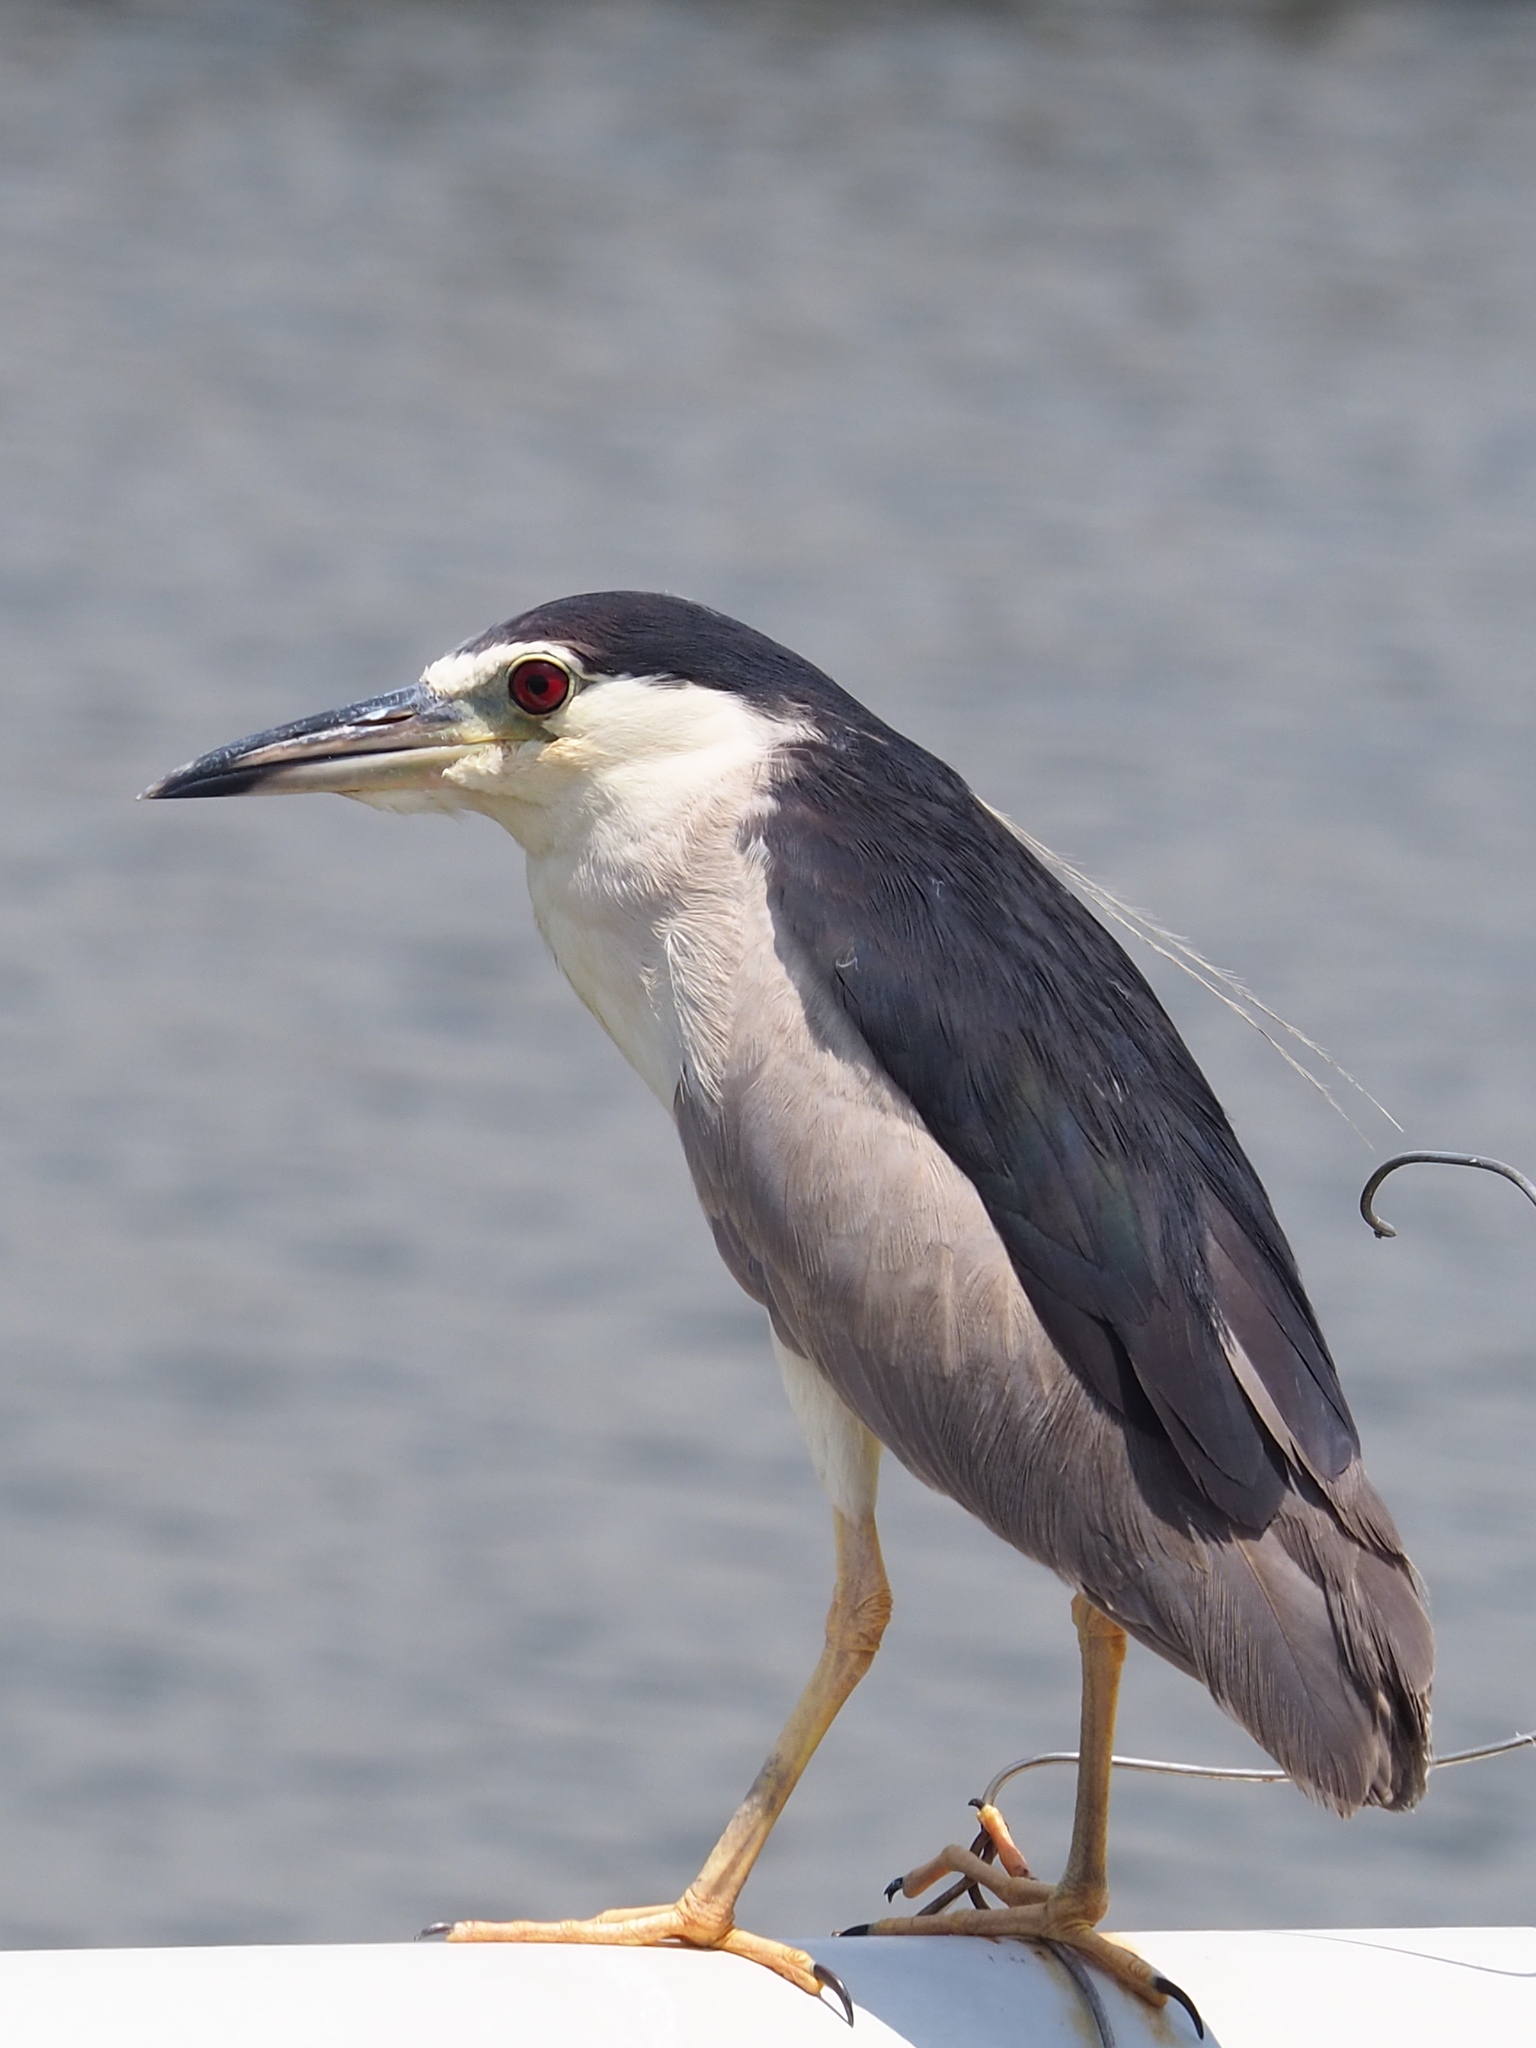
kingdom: Animalia
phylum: Chordata
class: Aves
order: Pelecaniformes
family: Ardeidae
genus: Nycticorax
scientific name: Nycticorax nycticorax
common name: Black-crowned night heron
